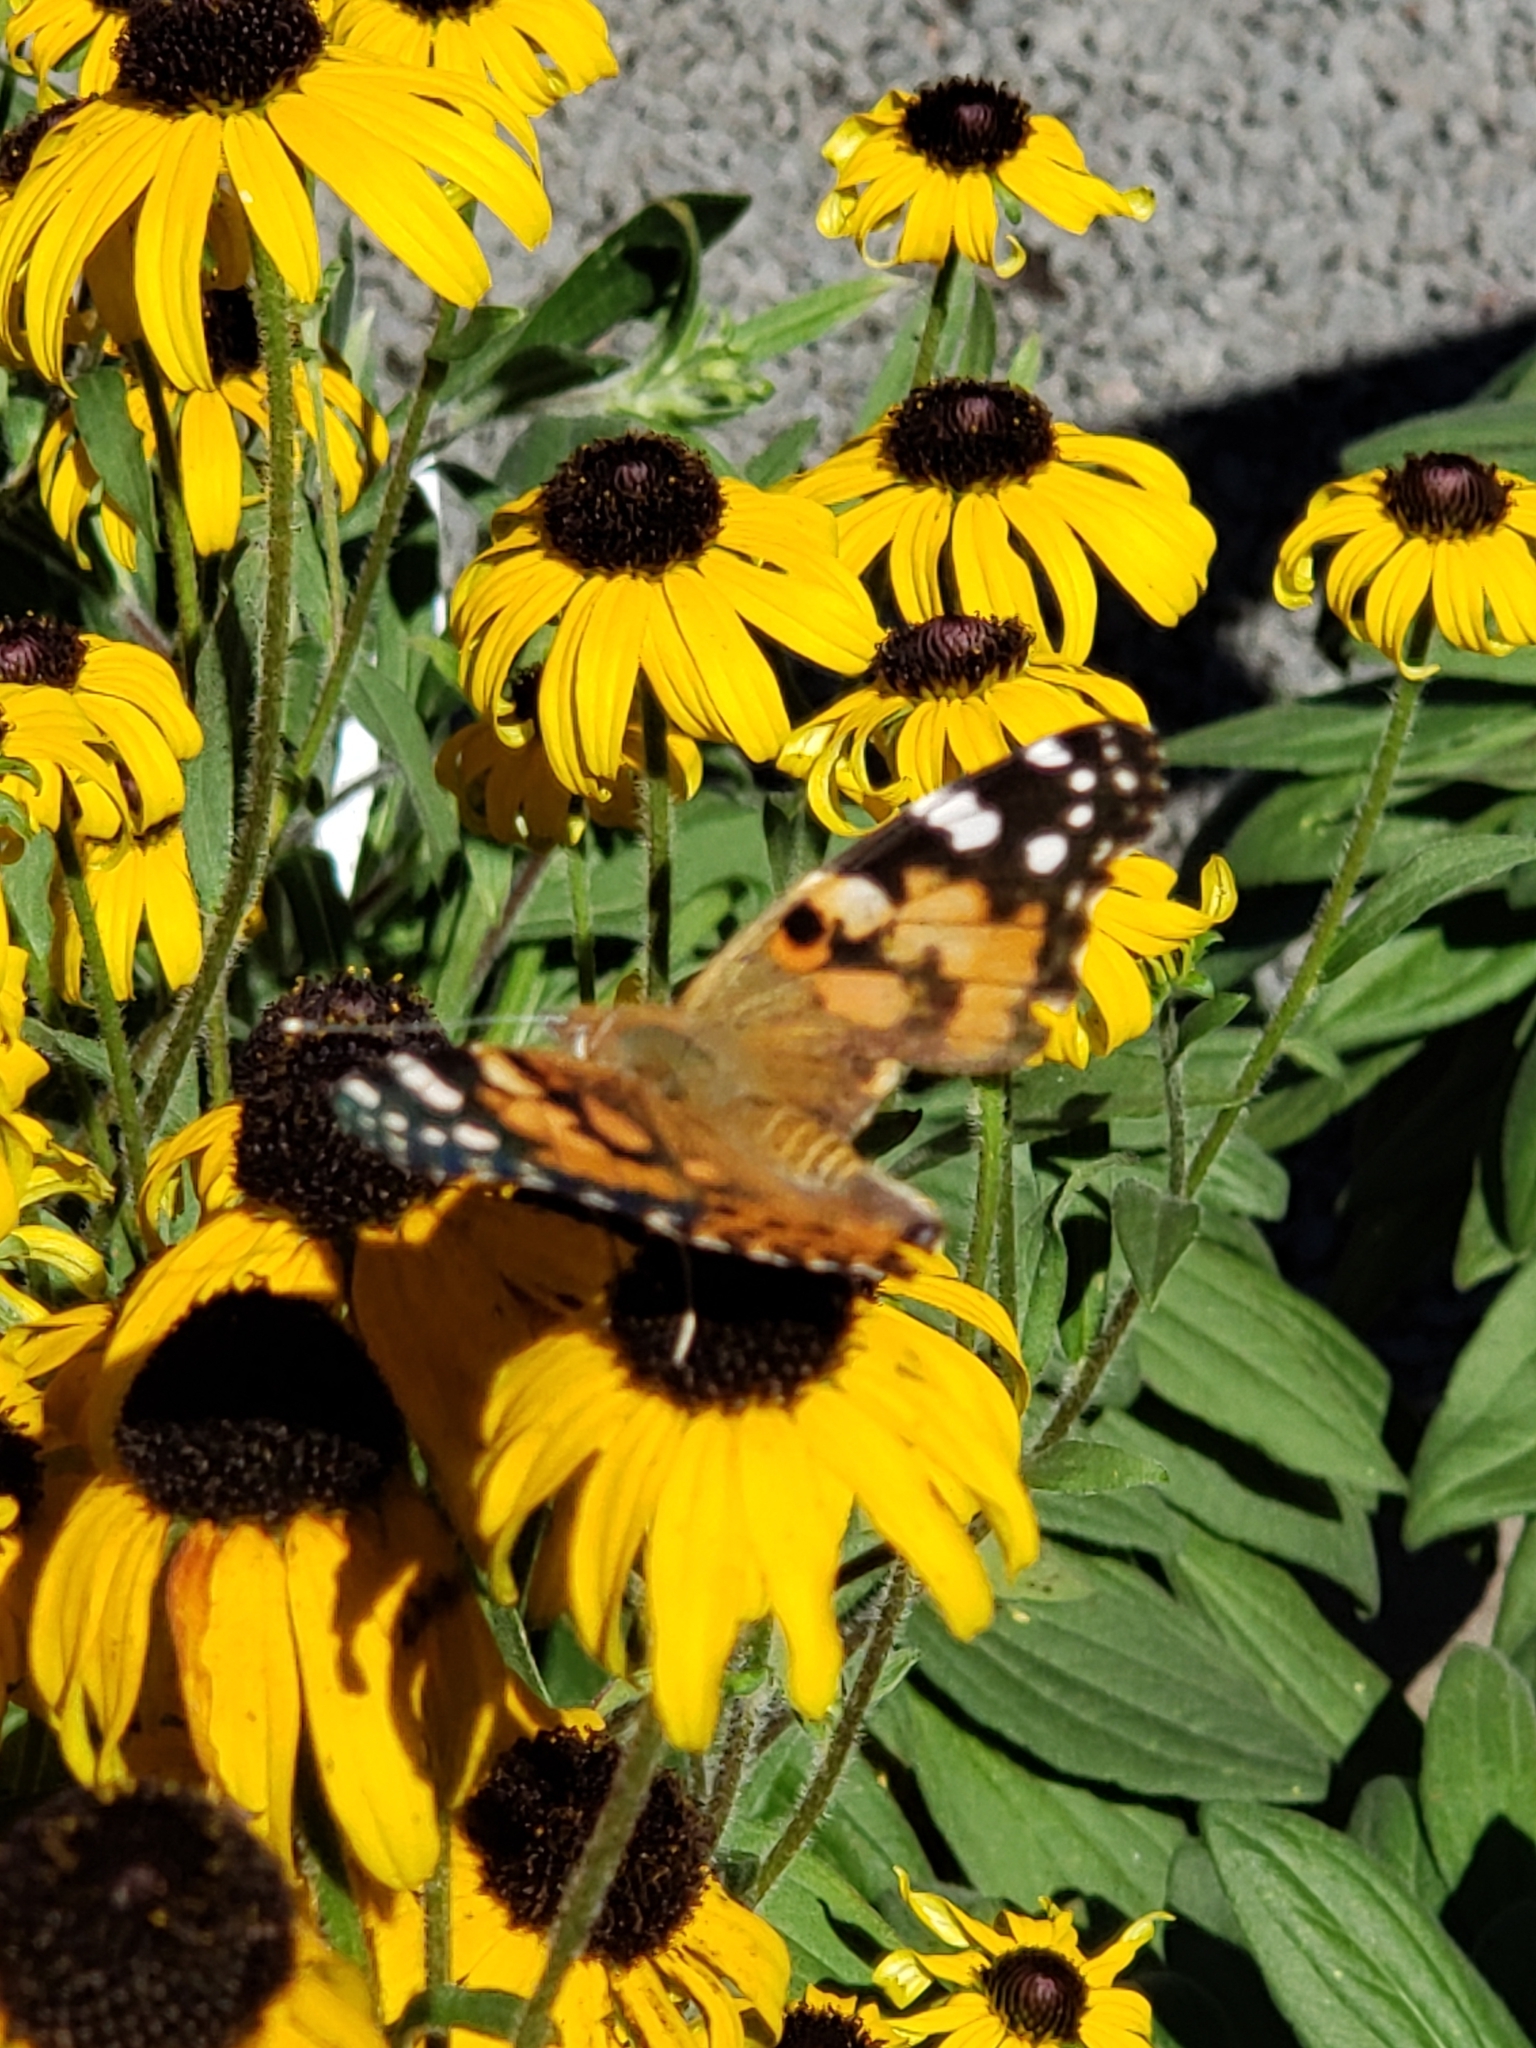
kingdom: Animalia
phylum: Arthropoda
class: Insecta
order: Lepidoptera
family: Nymphalidae
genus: Vanessa
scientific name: Vanessa cardui
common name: Painted lady
